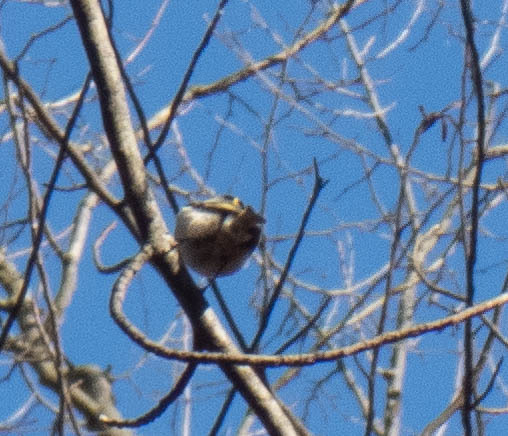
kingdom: Animalia
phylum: Chordata
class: Aves
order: Passeriformes
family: Regulidae
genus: Regulus
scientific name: Regulus satrapa
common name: Golden-crowned kinglet
